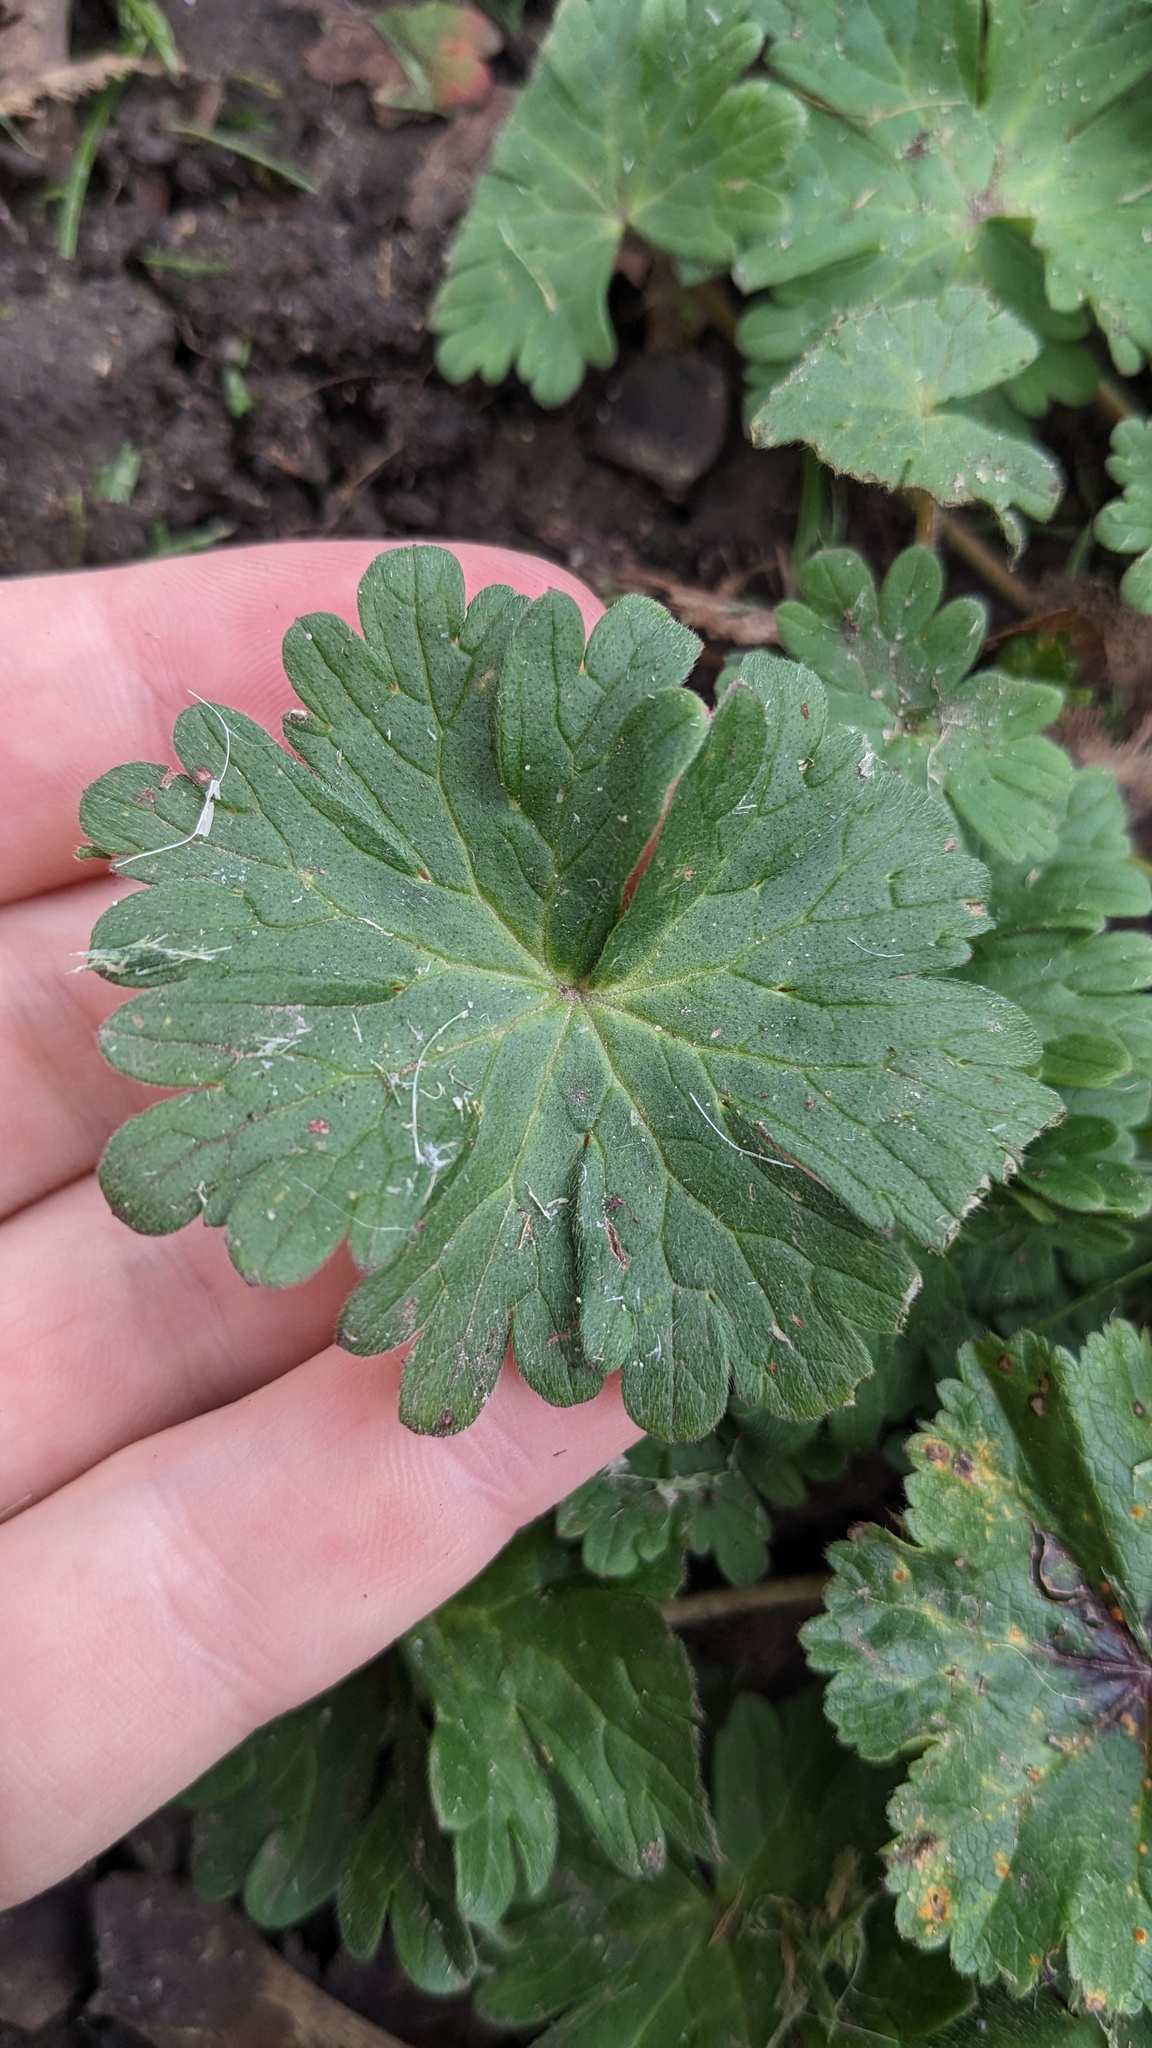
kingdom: Plantae
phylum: Tracheophyta
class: Magnoliopsida
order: Geraniales
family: Geraniaceae
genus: Geranium
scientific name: Geranium molle
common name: Dove's-foot crane's-bill
